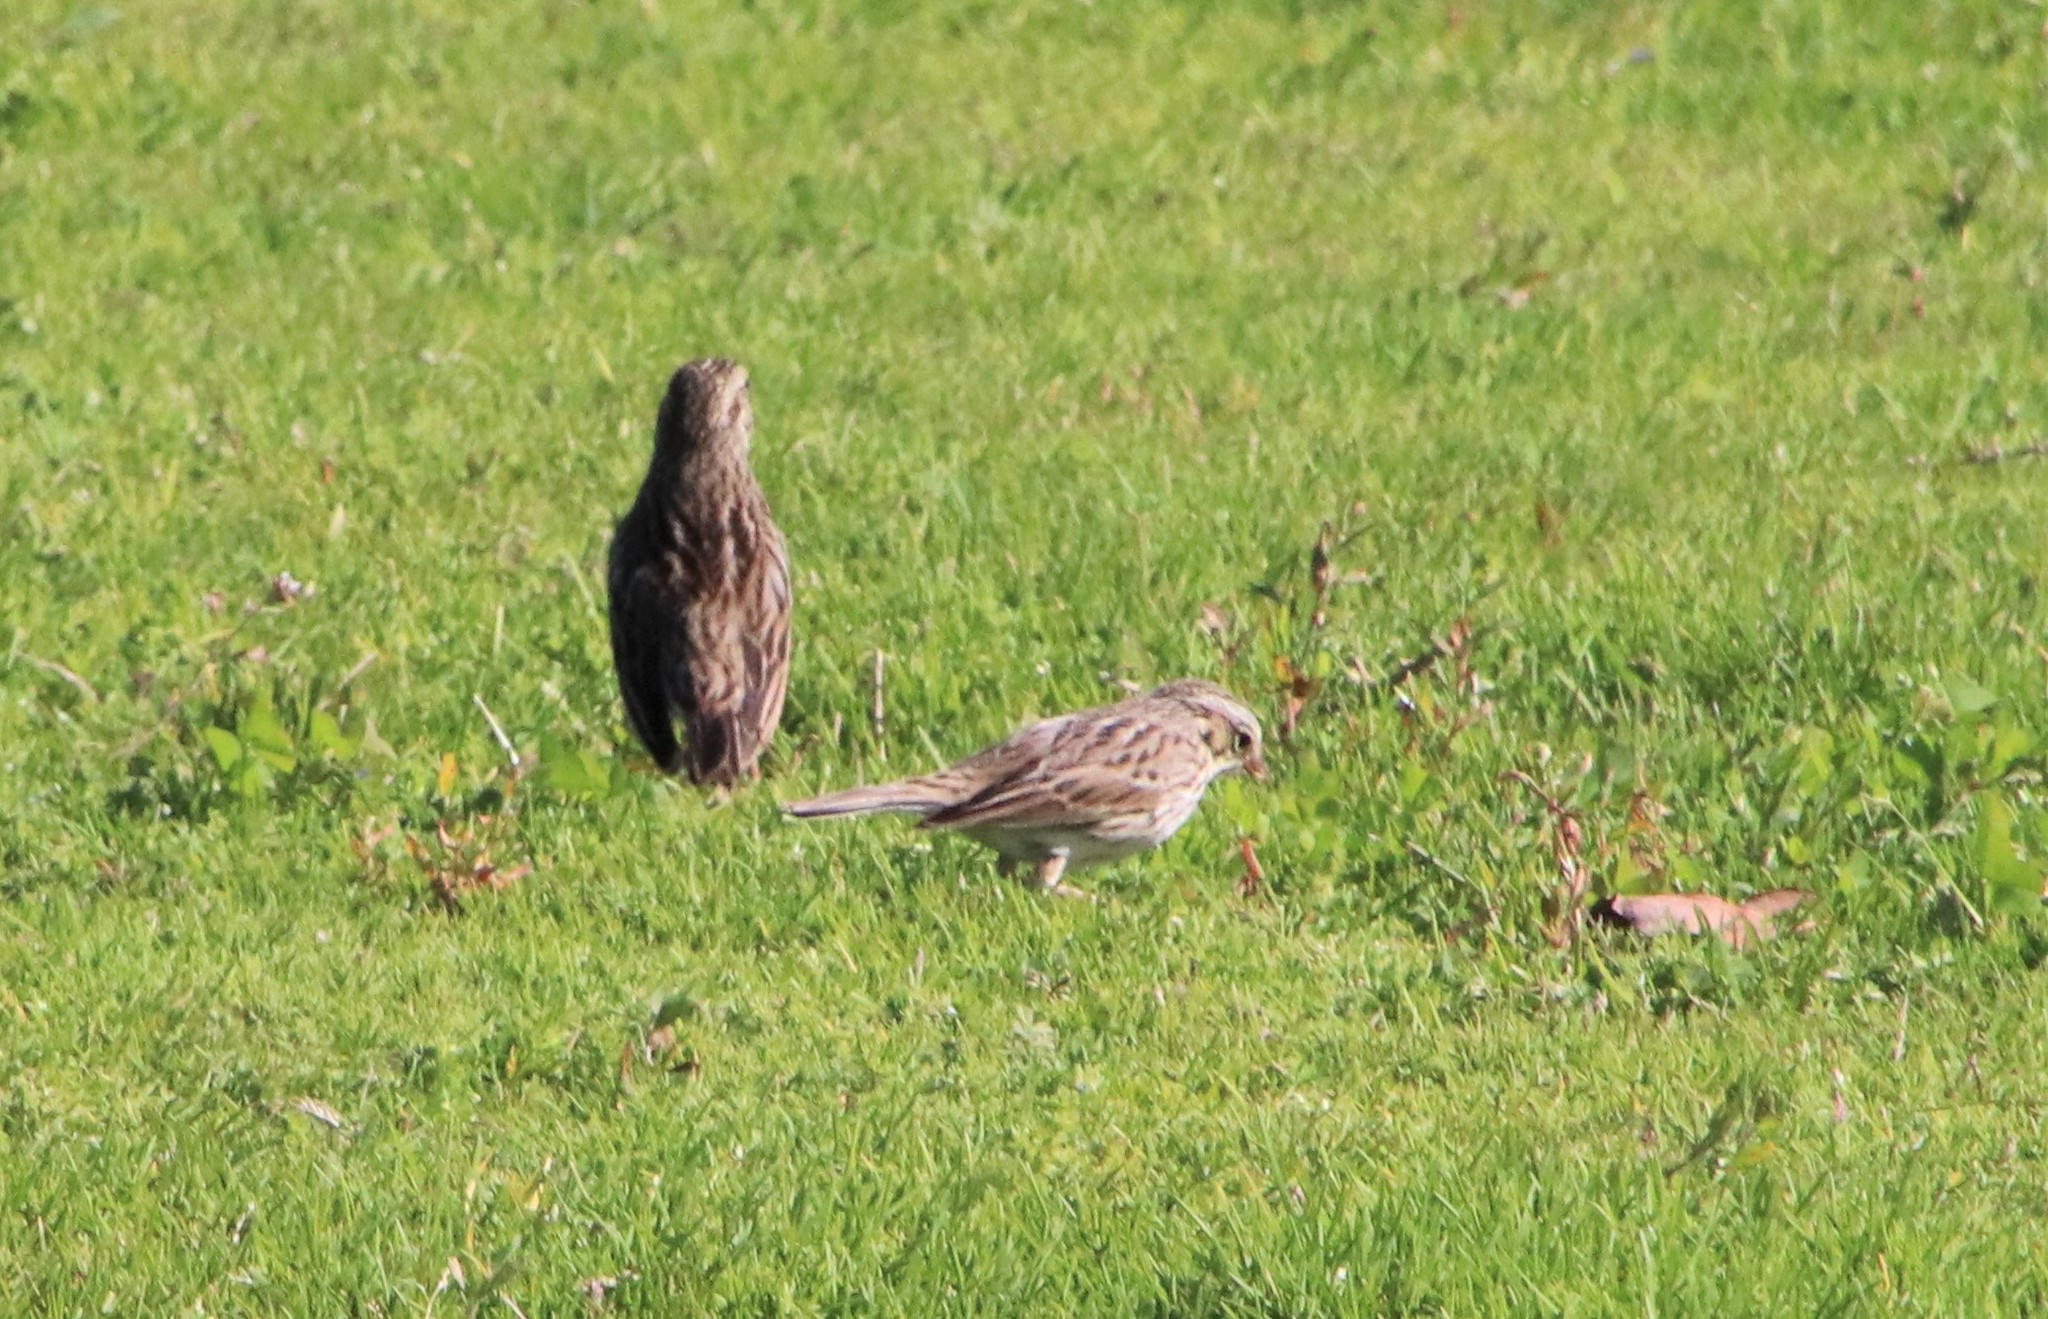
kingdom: Animalia
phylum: Chordata
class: Aves
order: Passeriformes
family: Passerellidae
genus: Passerculus
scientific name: Passerculus sandwichensis
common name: Savannah sparrow
